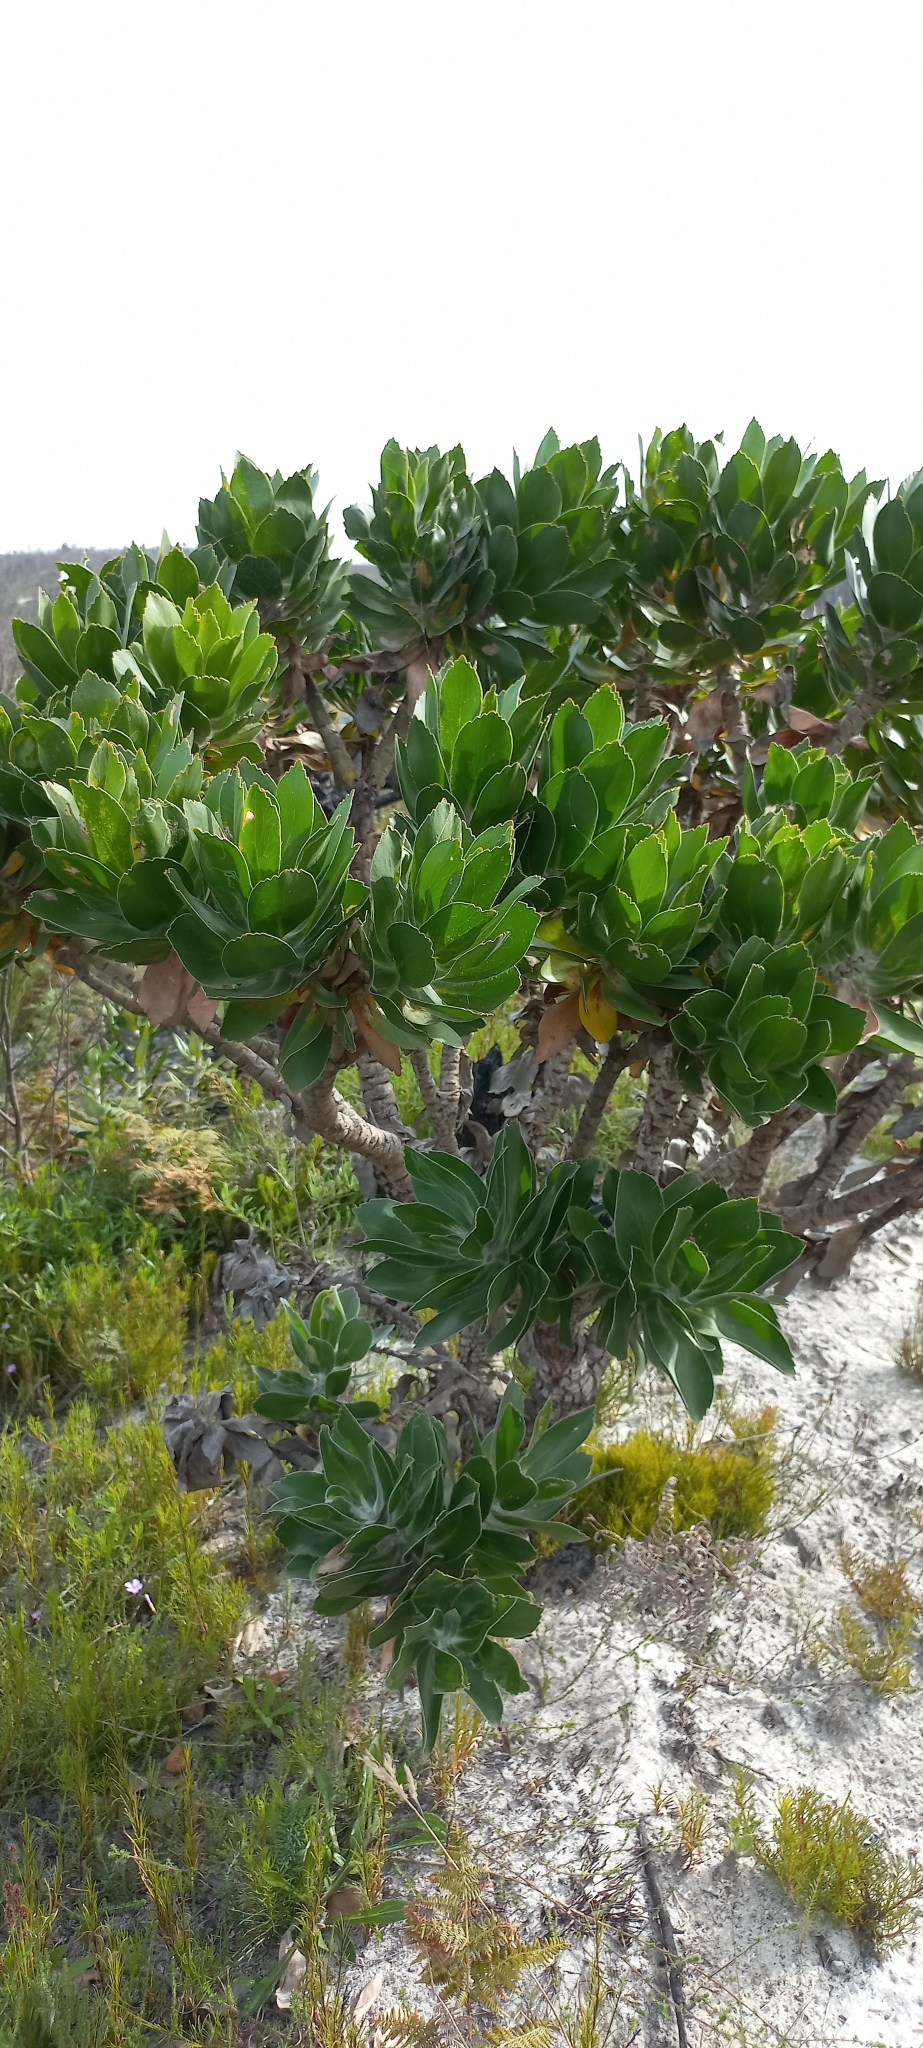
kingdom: Plantae
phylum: Tracheophyta
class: Magnoliopsida
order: Proteales
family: Proteaceae
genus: Leucospermum
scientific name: Leucospermum conocarpodendron
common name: Tree pincushion
